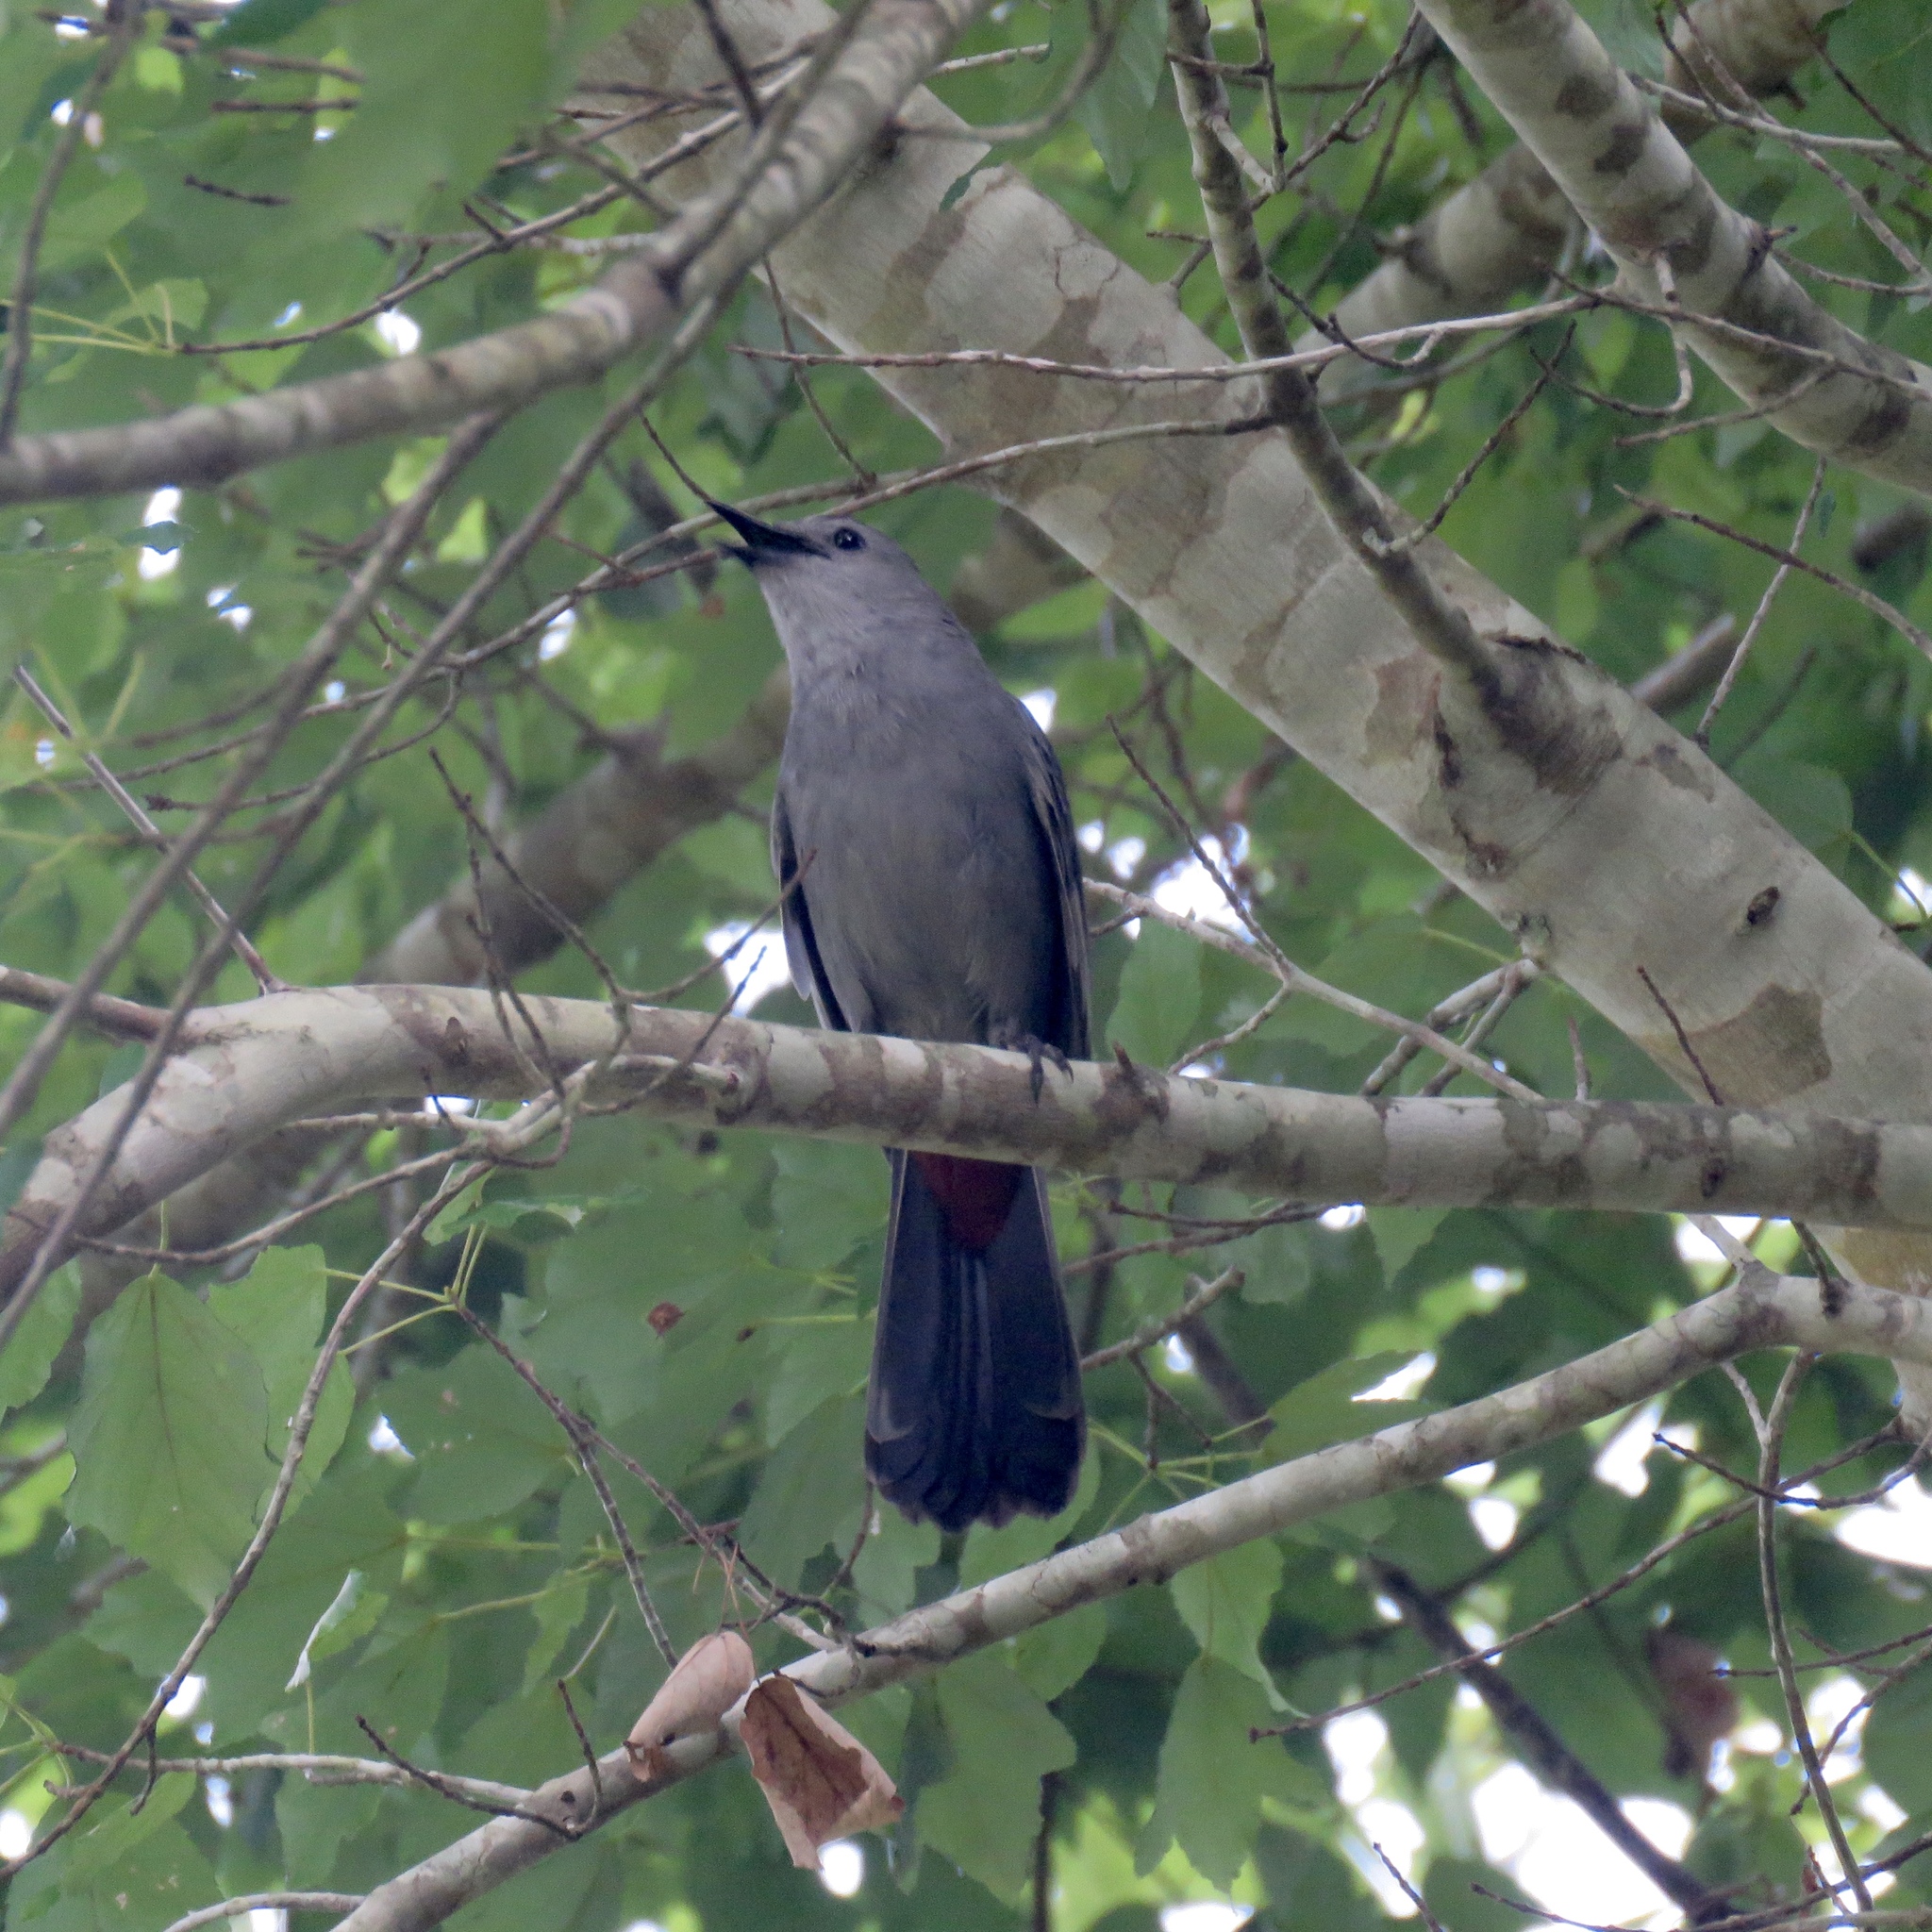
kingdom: Animalia
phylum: Chordata
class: Aves
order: Passeriformes
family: Mimidae
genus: Dumetella
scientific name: Dumetella carolinensis
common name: Gray catbird
